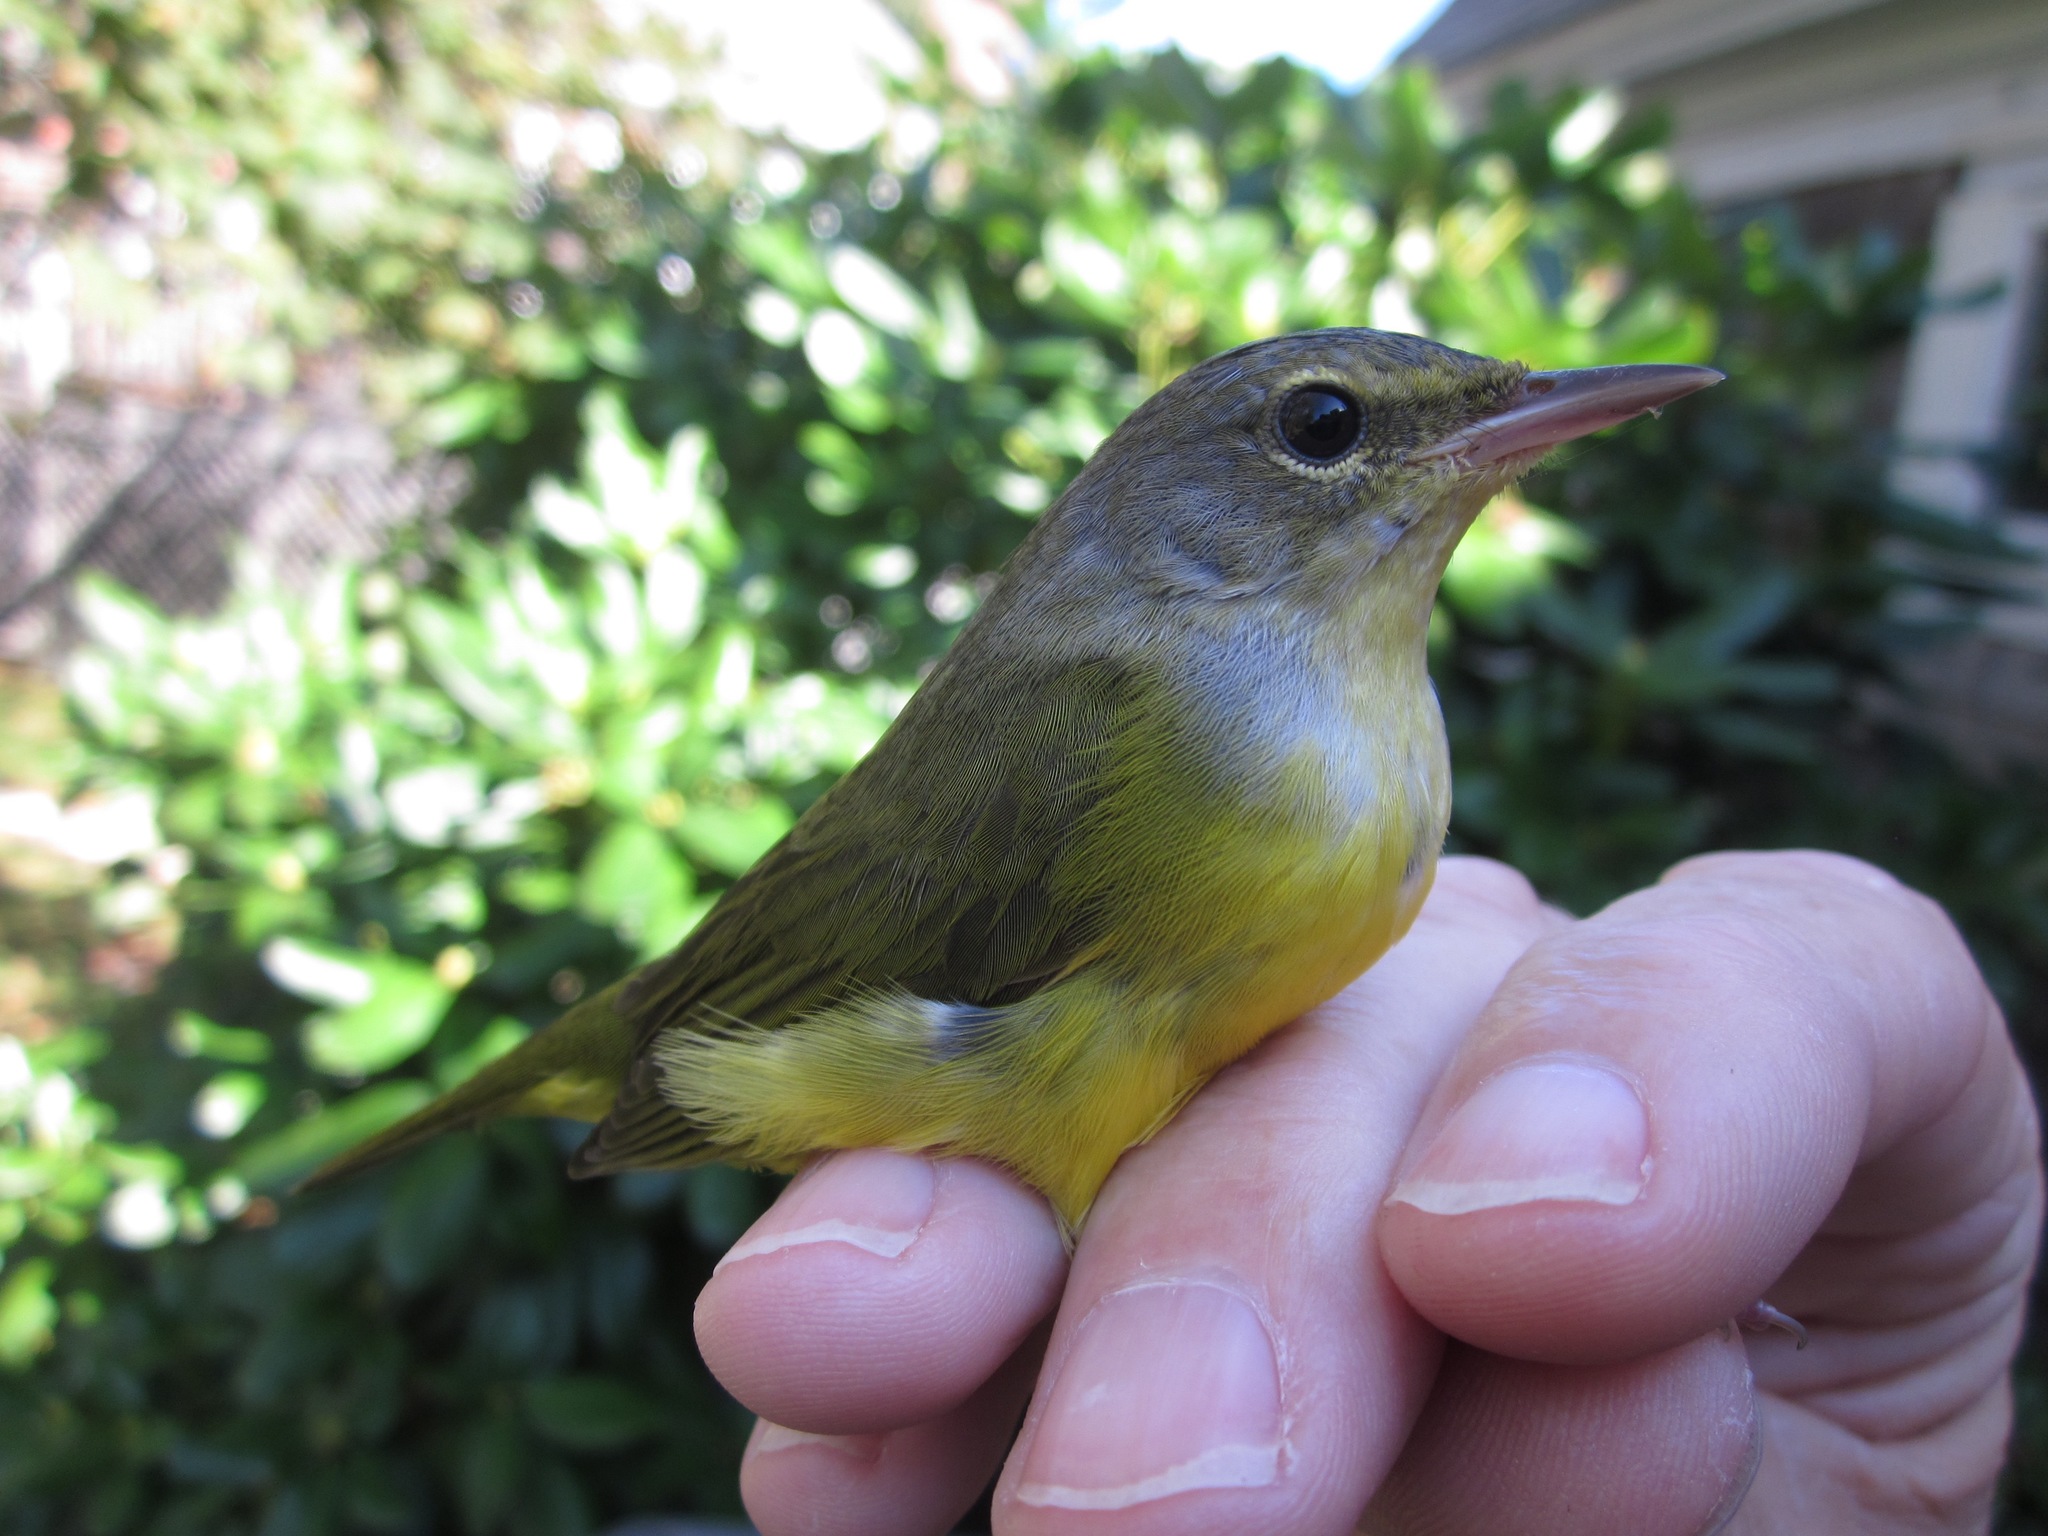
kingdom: Animalia
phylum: Chordata
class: Aves
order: Passeriformes
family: Parulidae
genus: Geothlypis
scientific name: Geothlypis philadelphia
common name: Mourning warbler
